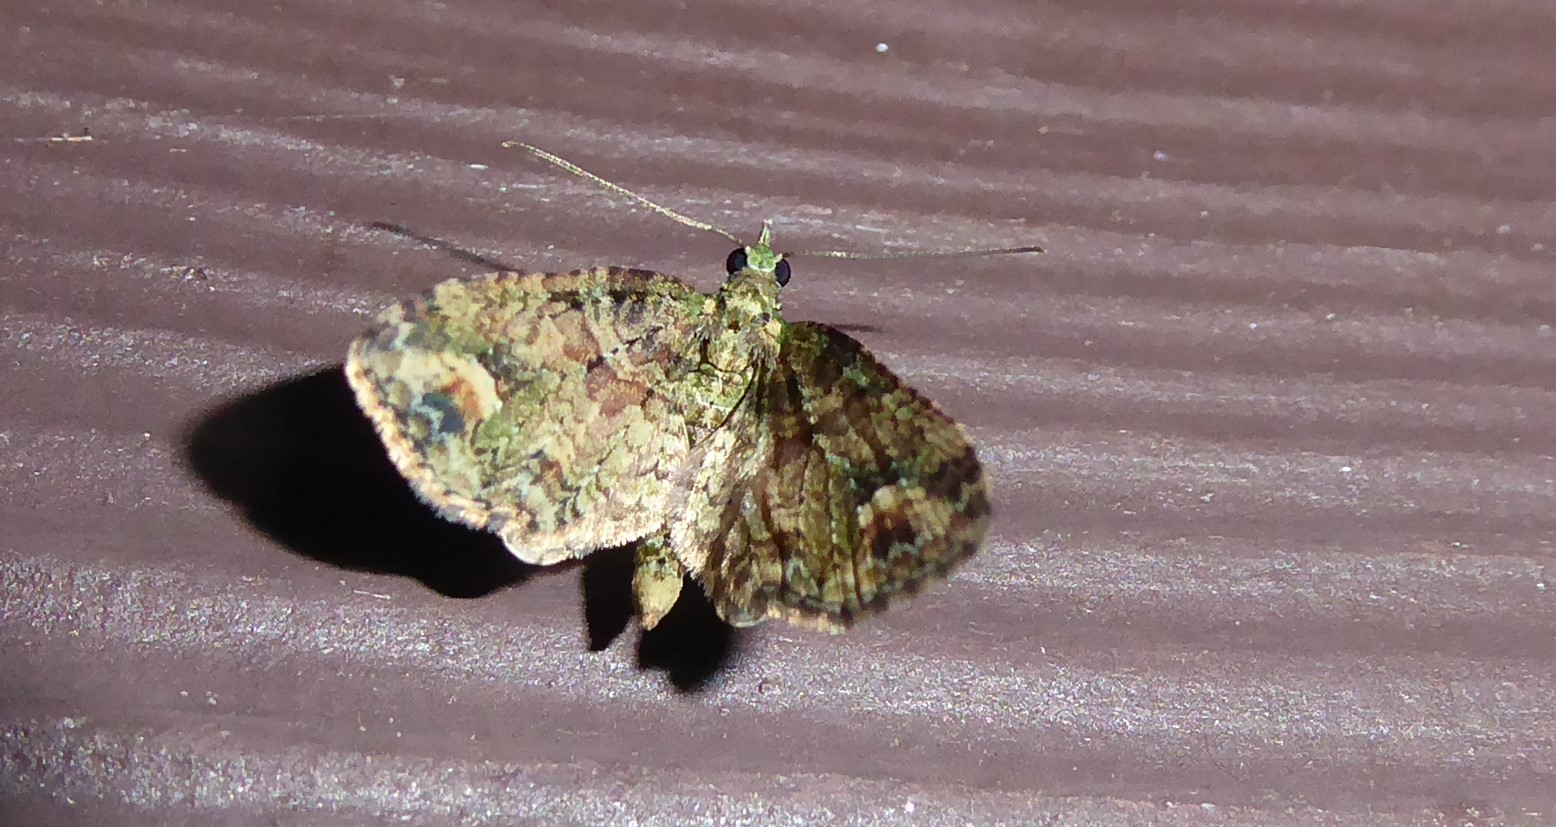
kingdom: Animalia
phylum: Arthropoda
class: Insecta
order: Lepidoptera
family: Geometridae
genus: Idaea
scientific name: Idaea mutanda
